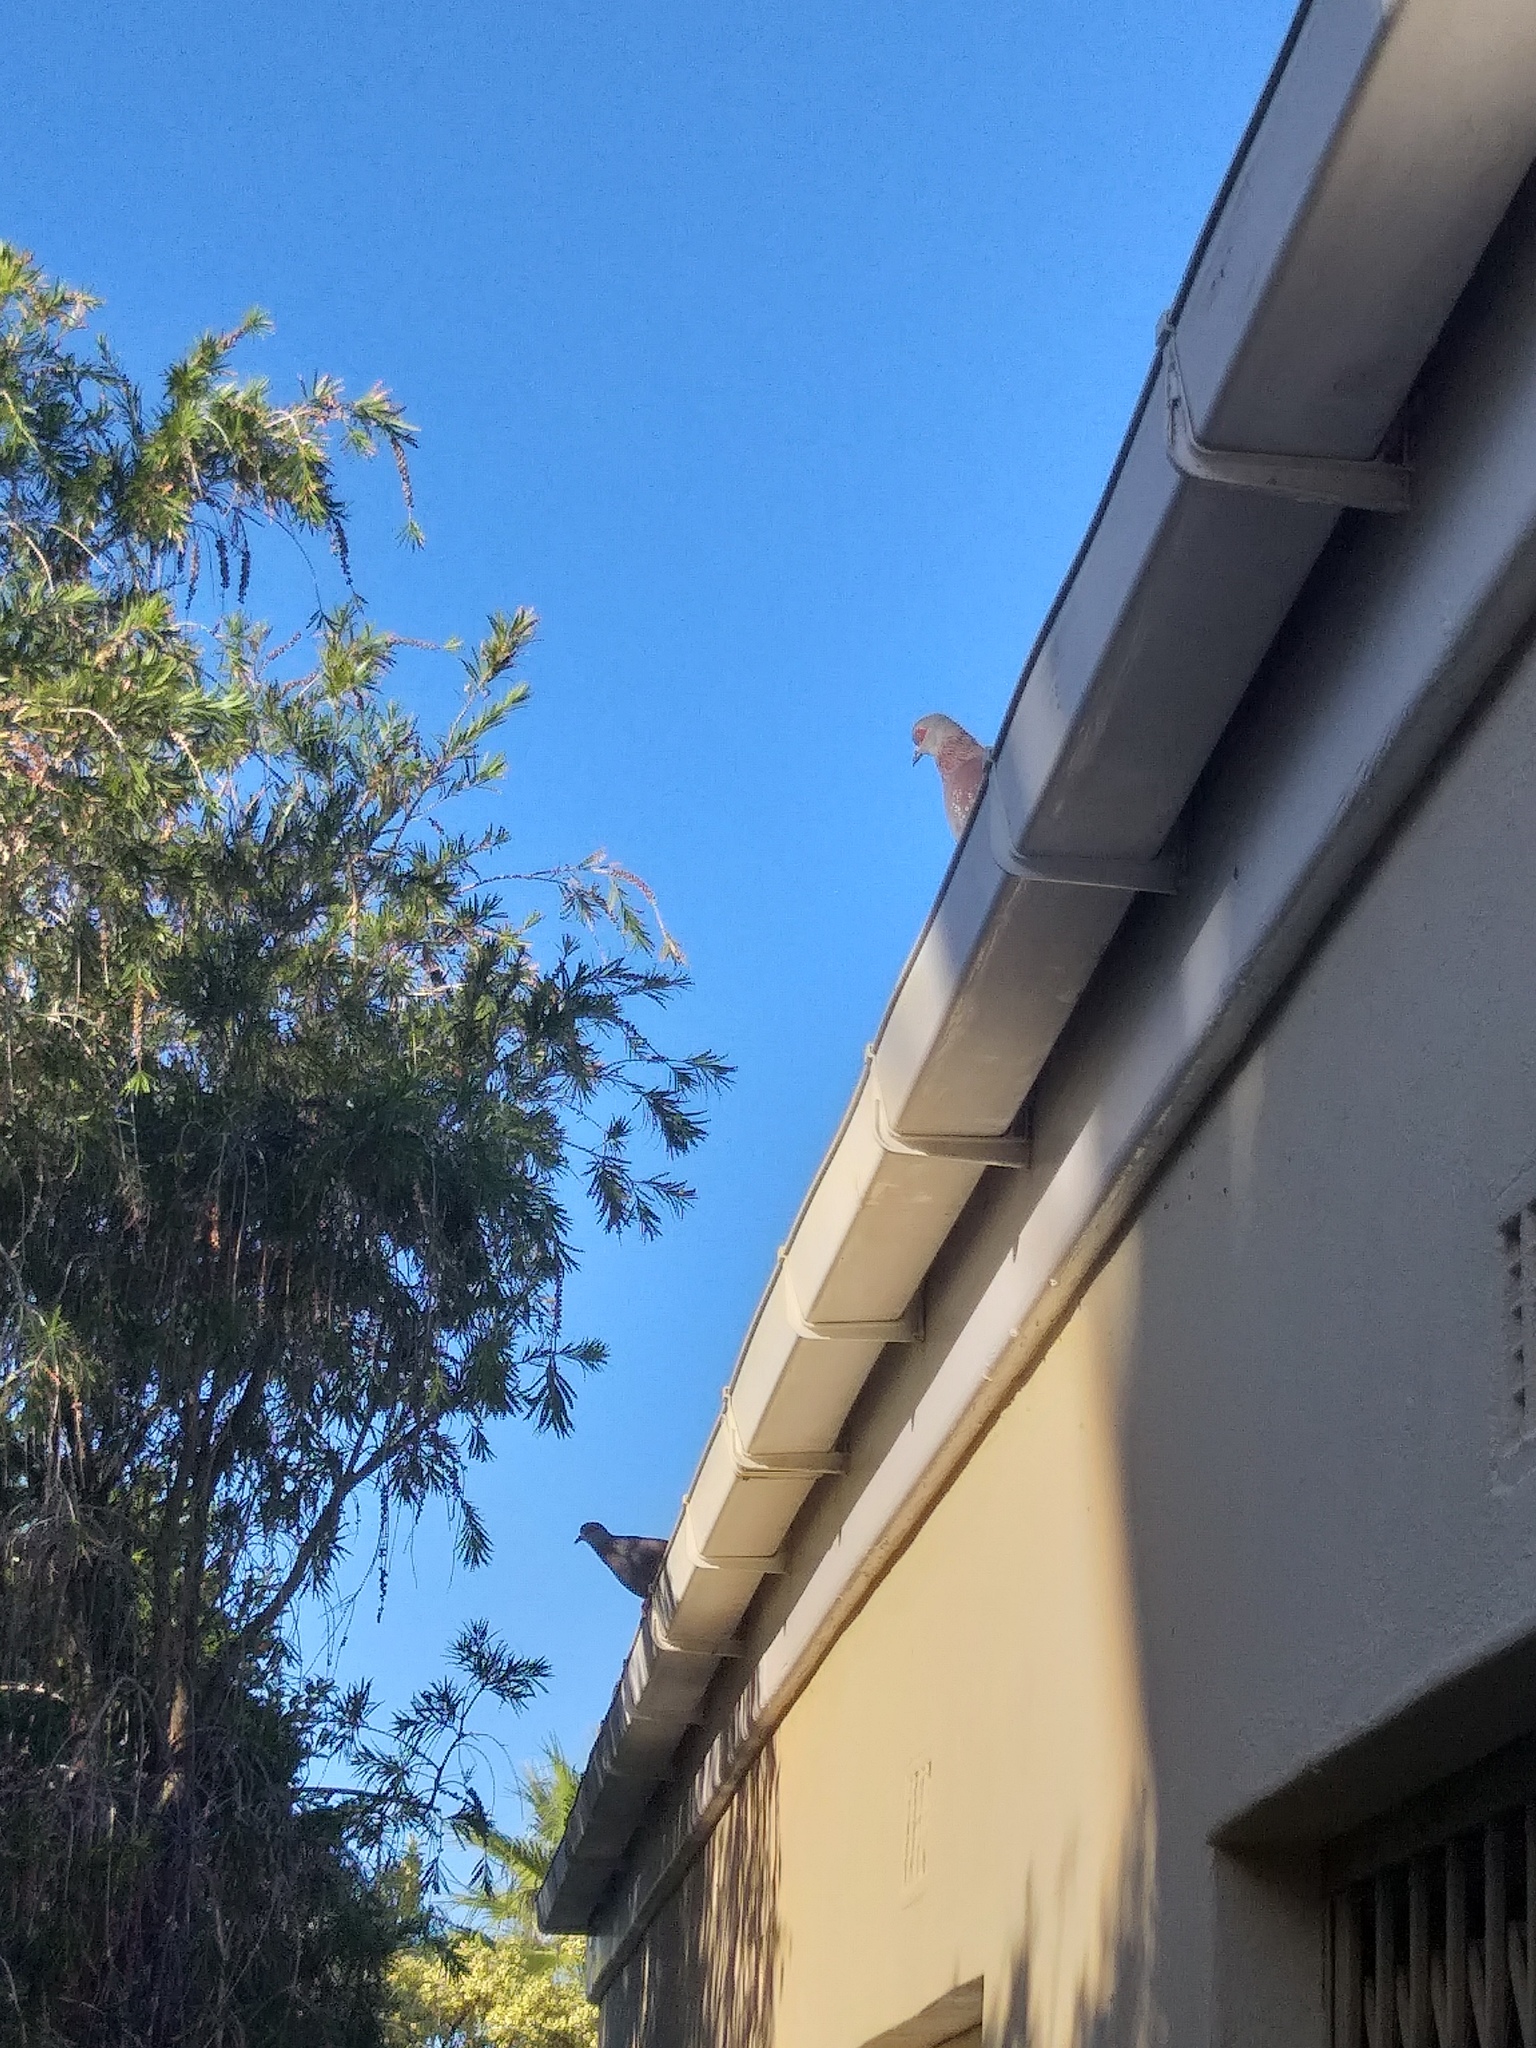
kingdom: Animalia
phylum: Chordata
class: Aves
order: Columbiformes
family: Columbidae
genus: Columba
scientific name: Columba guinea
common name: Speckled pigeon
